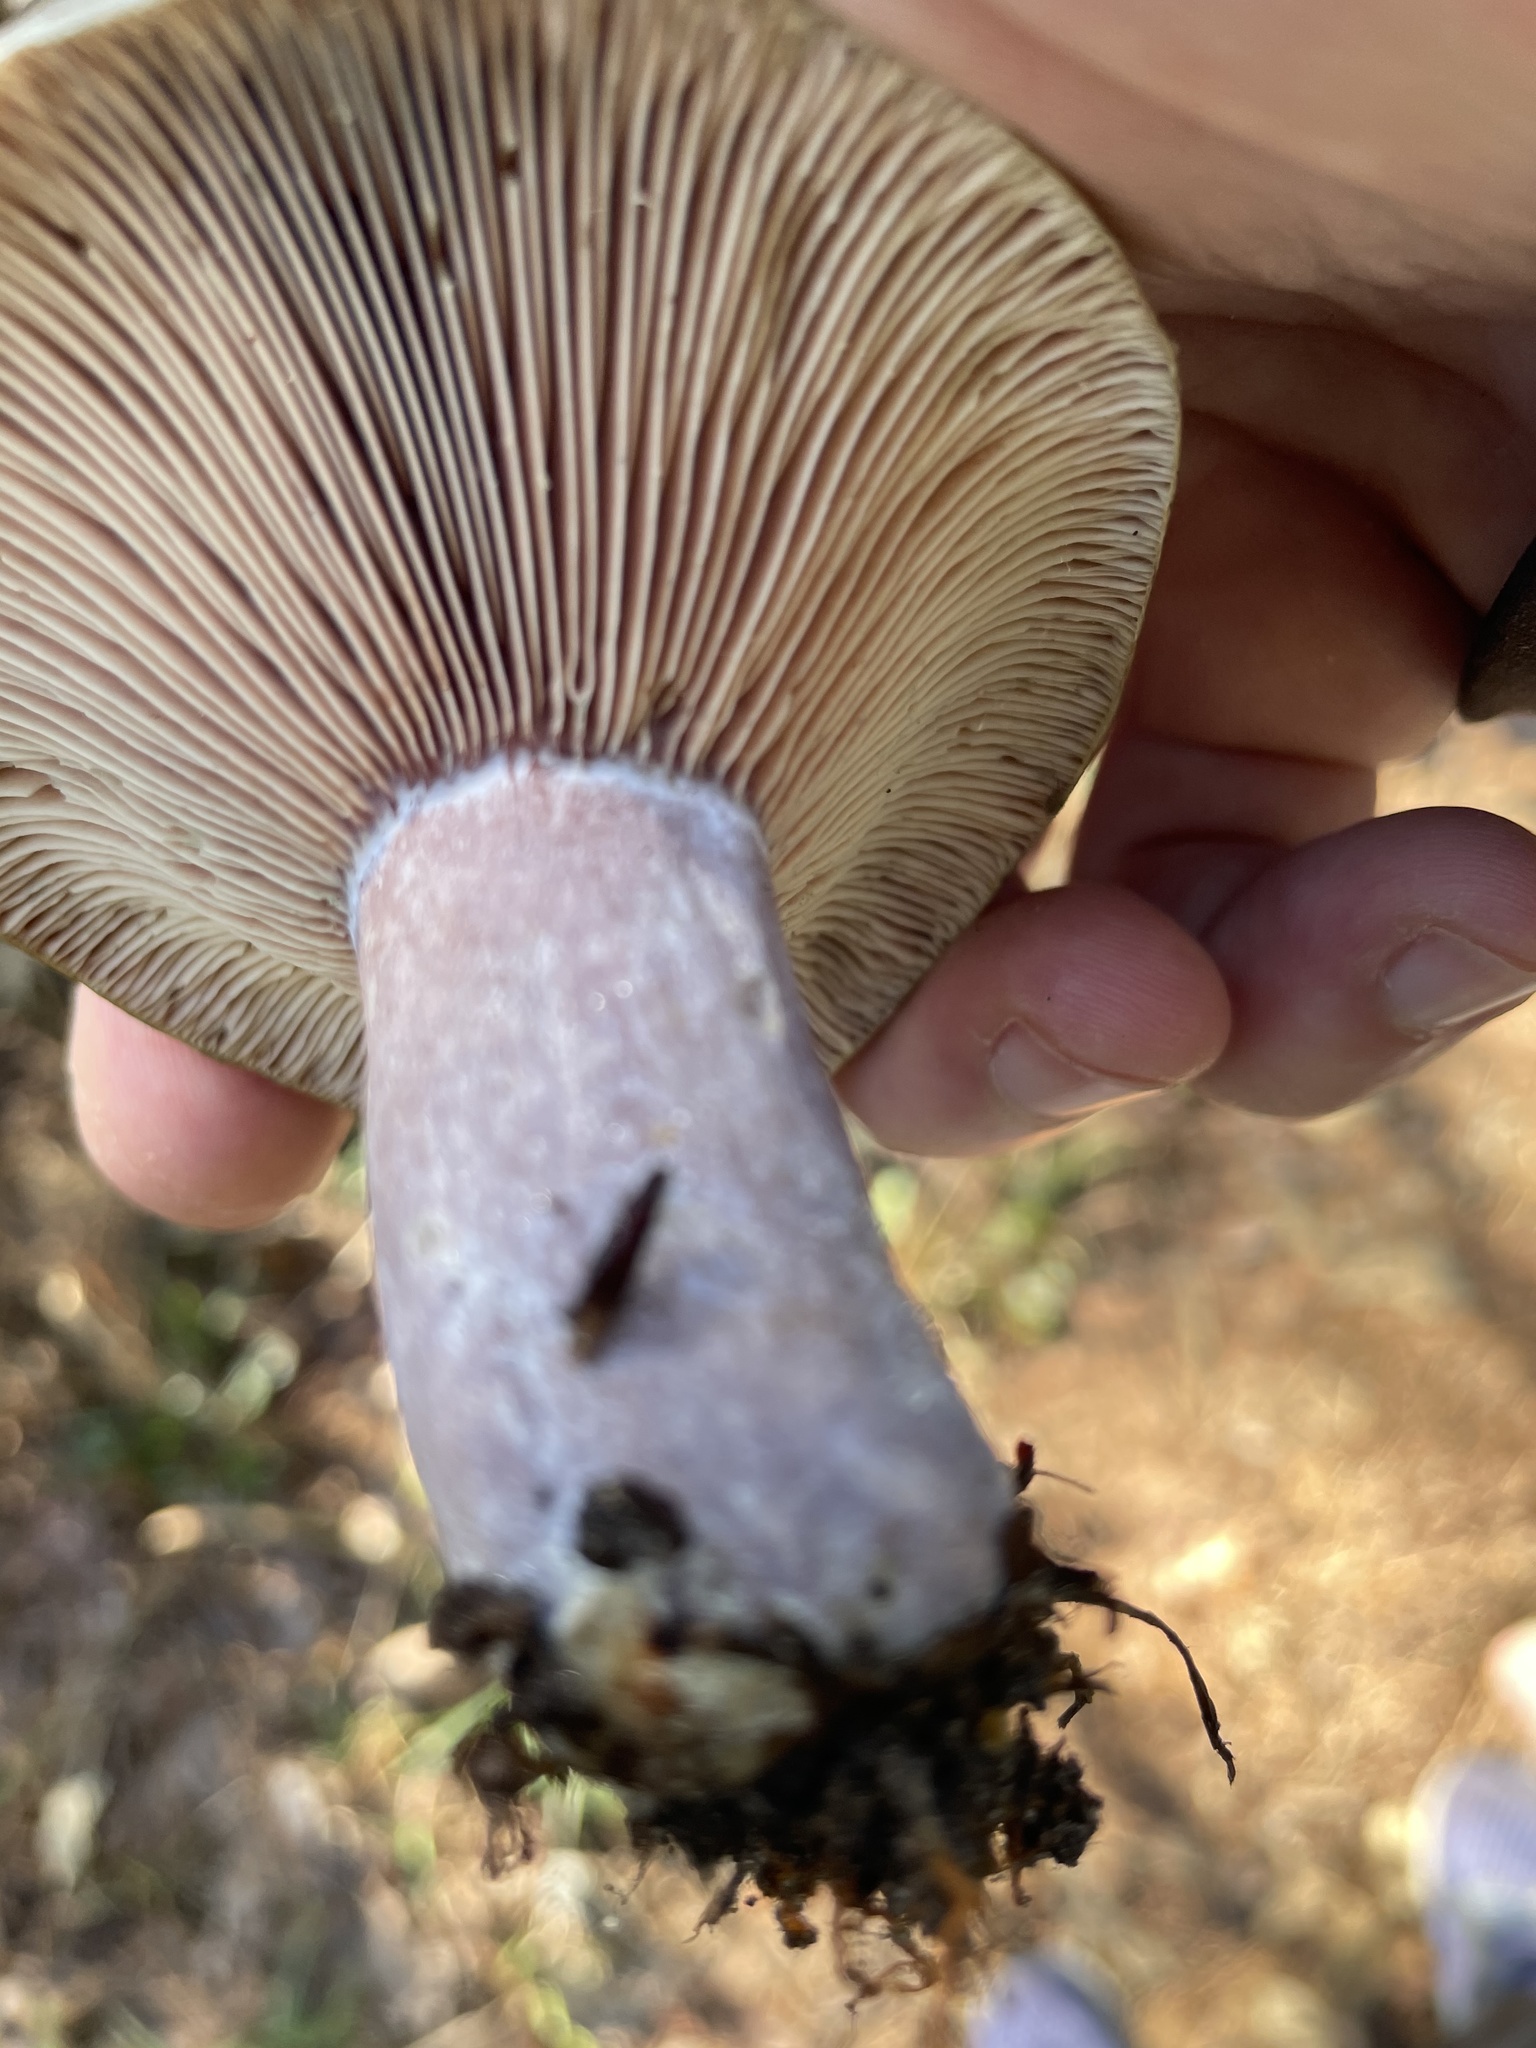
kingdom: Fungi
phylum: Basidiomycota
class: Agaricomycetes
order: Russulales
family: Russulaceae
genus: Lactarius
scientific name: Lactarius paradoxus
